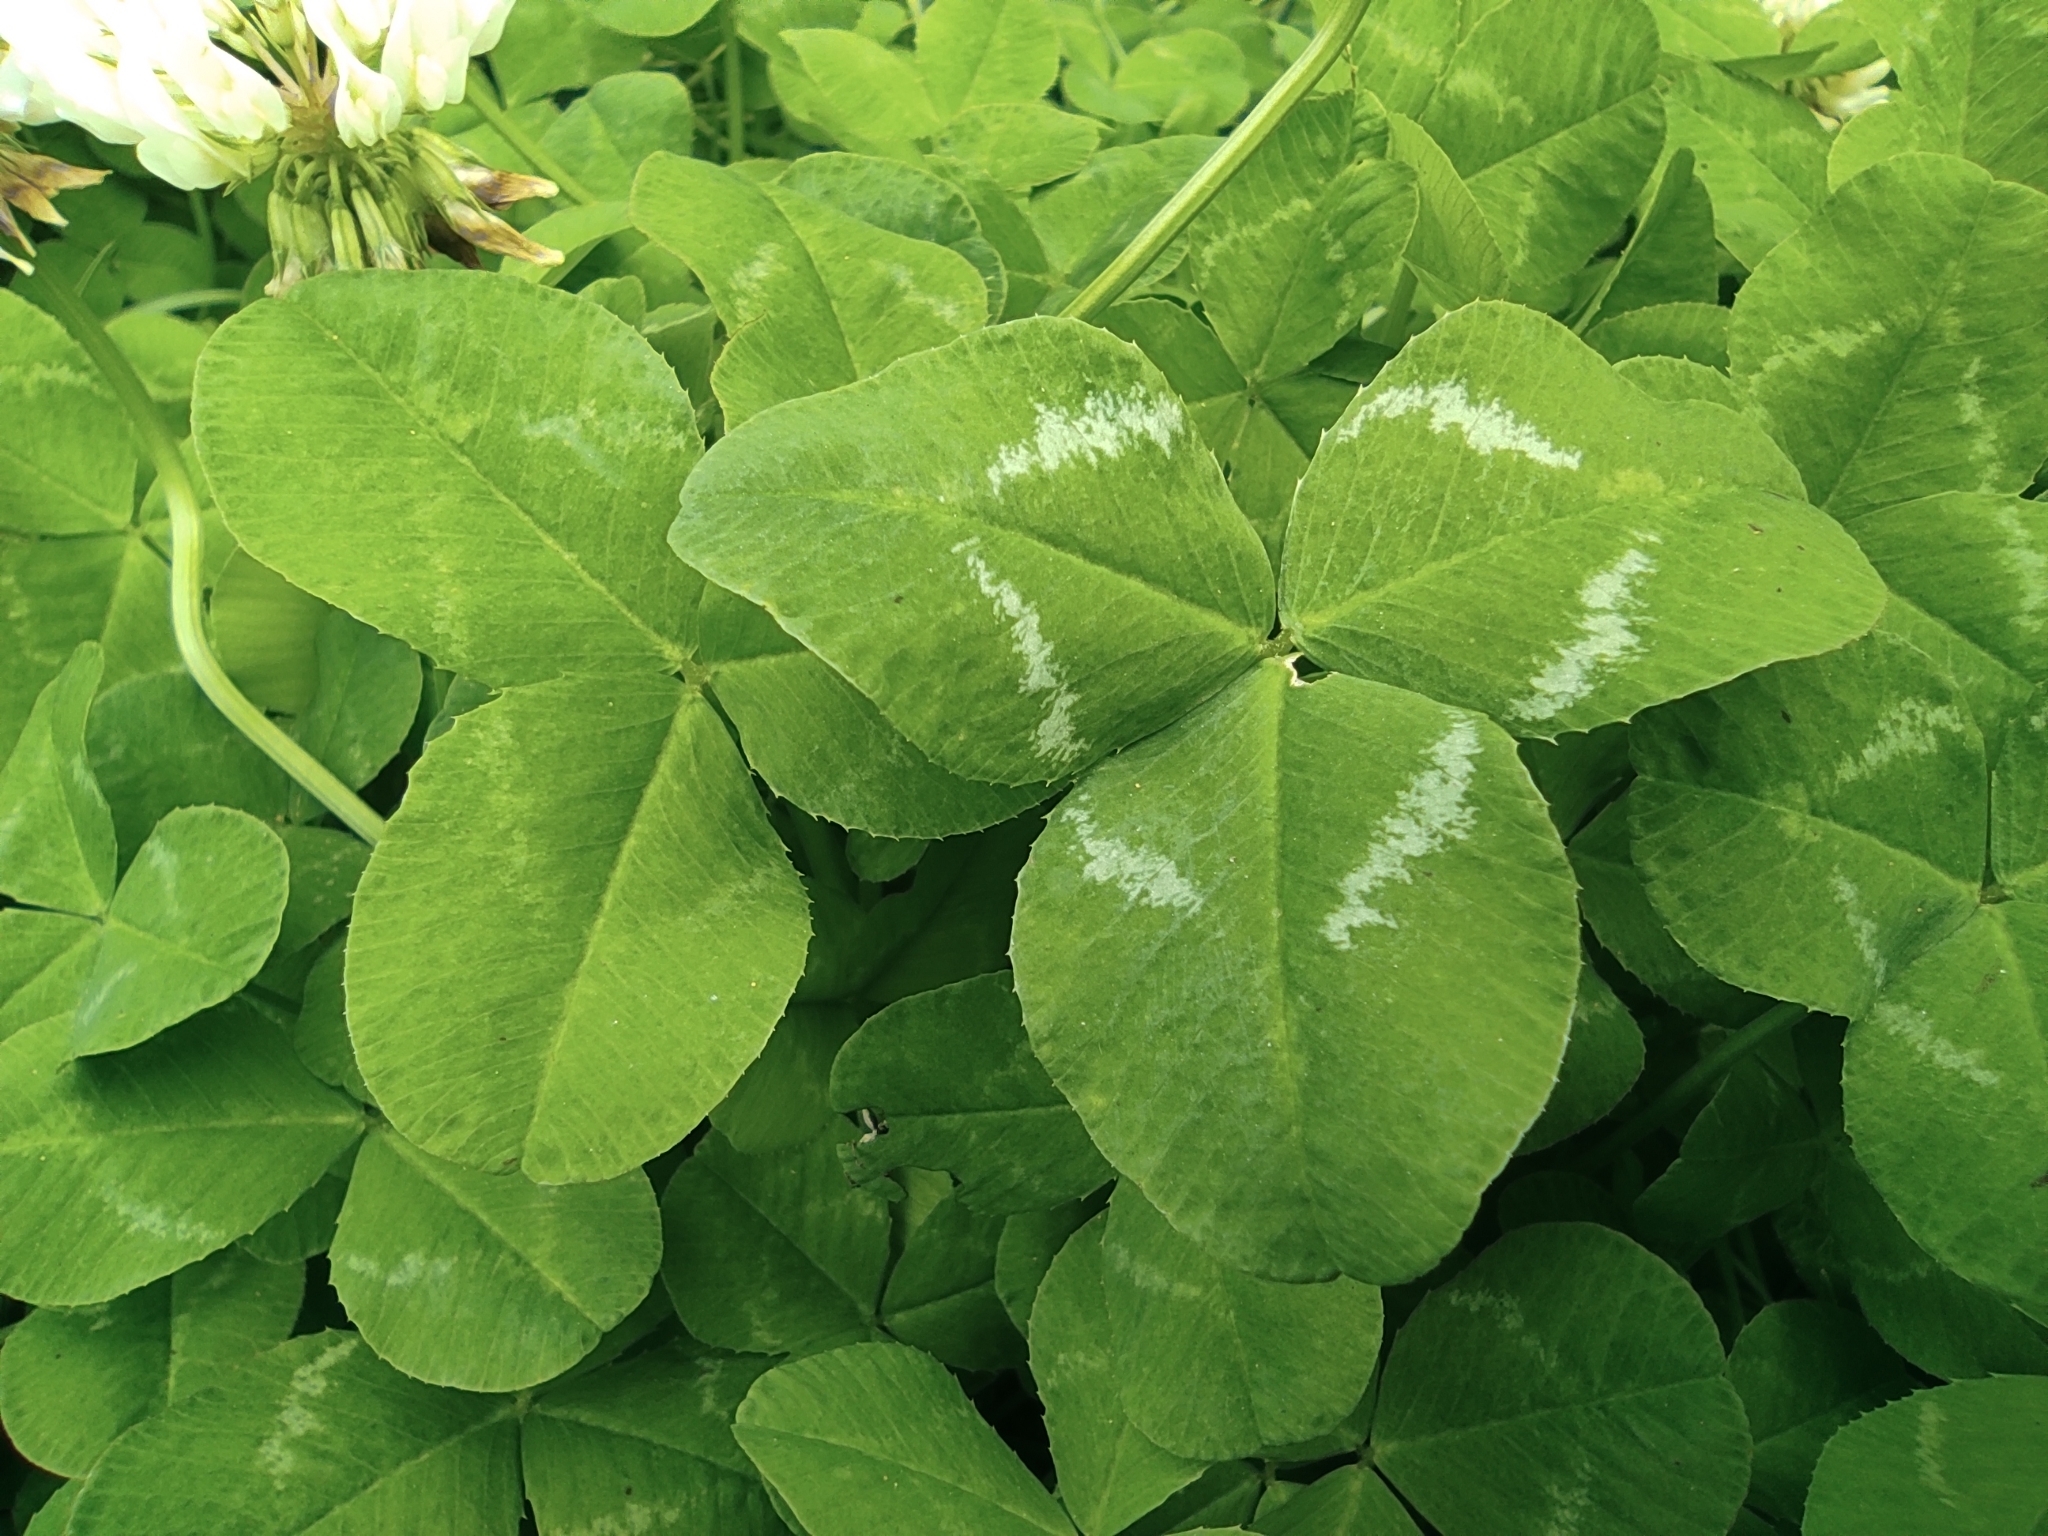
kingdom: Plantae
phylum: Tracheophyta
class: Magnoliopsida
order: Fabales
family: Fabaceae
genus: Trifolium
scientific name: Trifolium repens
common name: White clover
